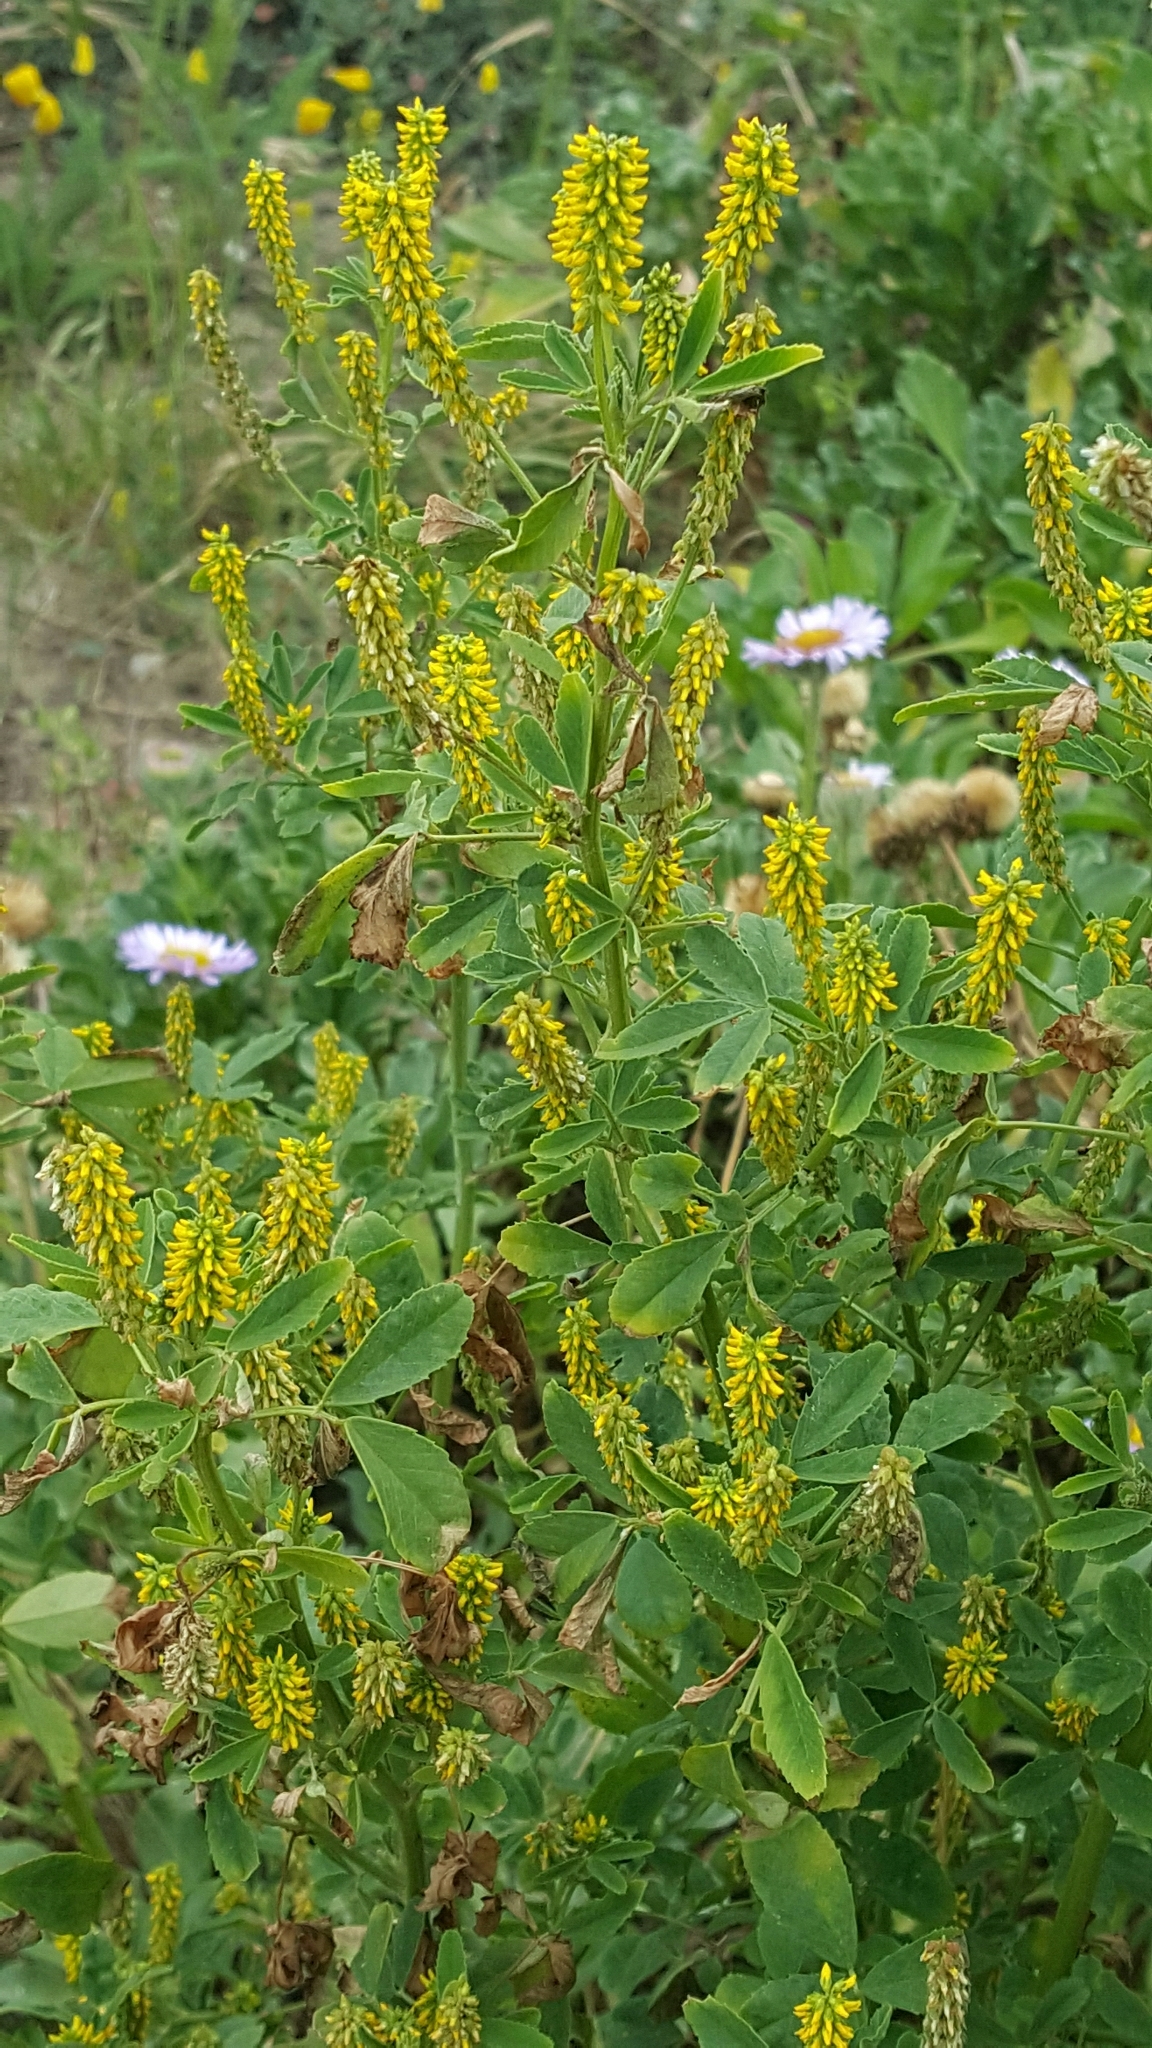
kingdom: Plantae
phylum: Tracheophyta
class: Magnoliopsida
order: Fabales
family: Fabaceae
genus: Melilotus
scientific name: Melilotus indicus
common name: Small melilot
